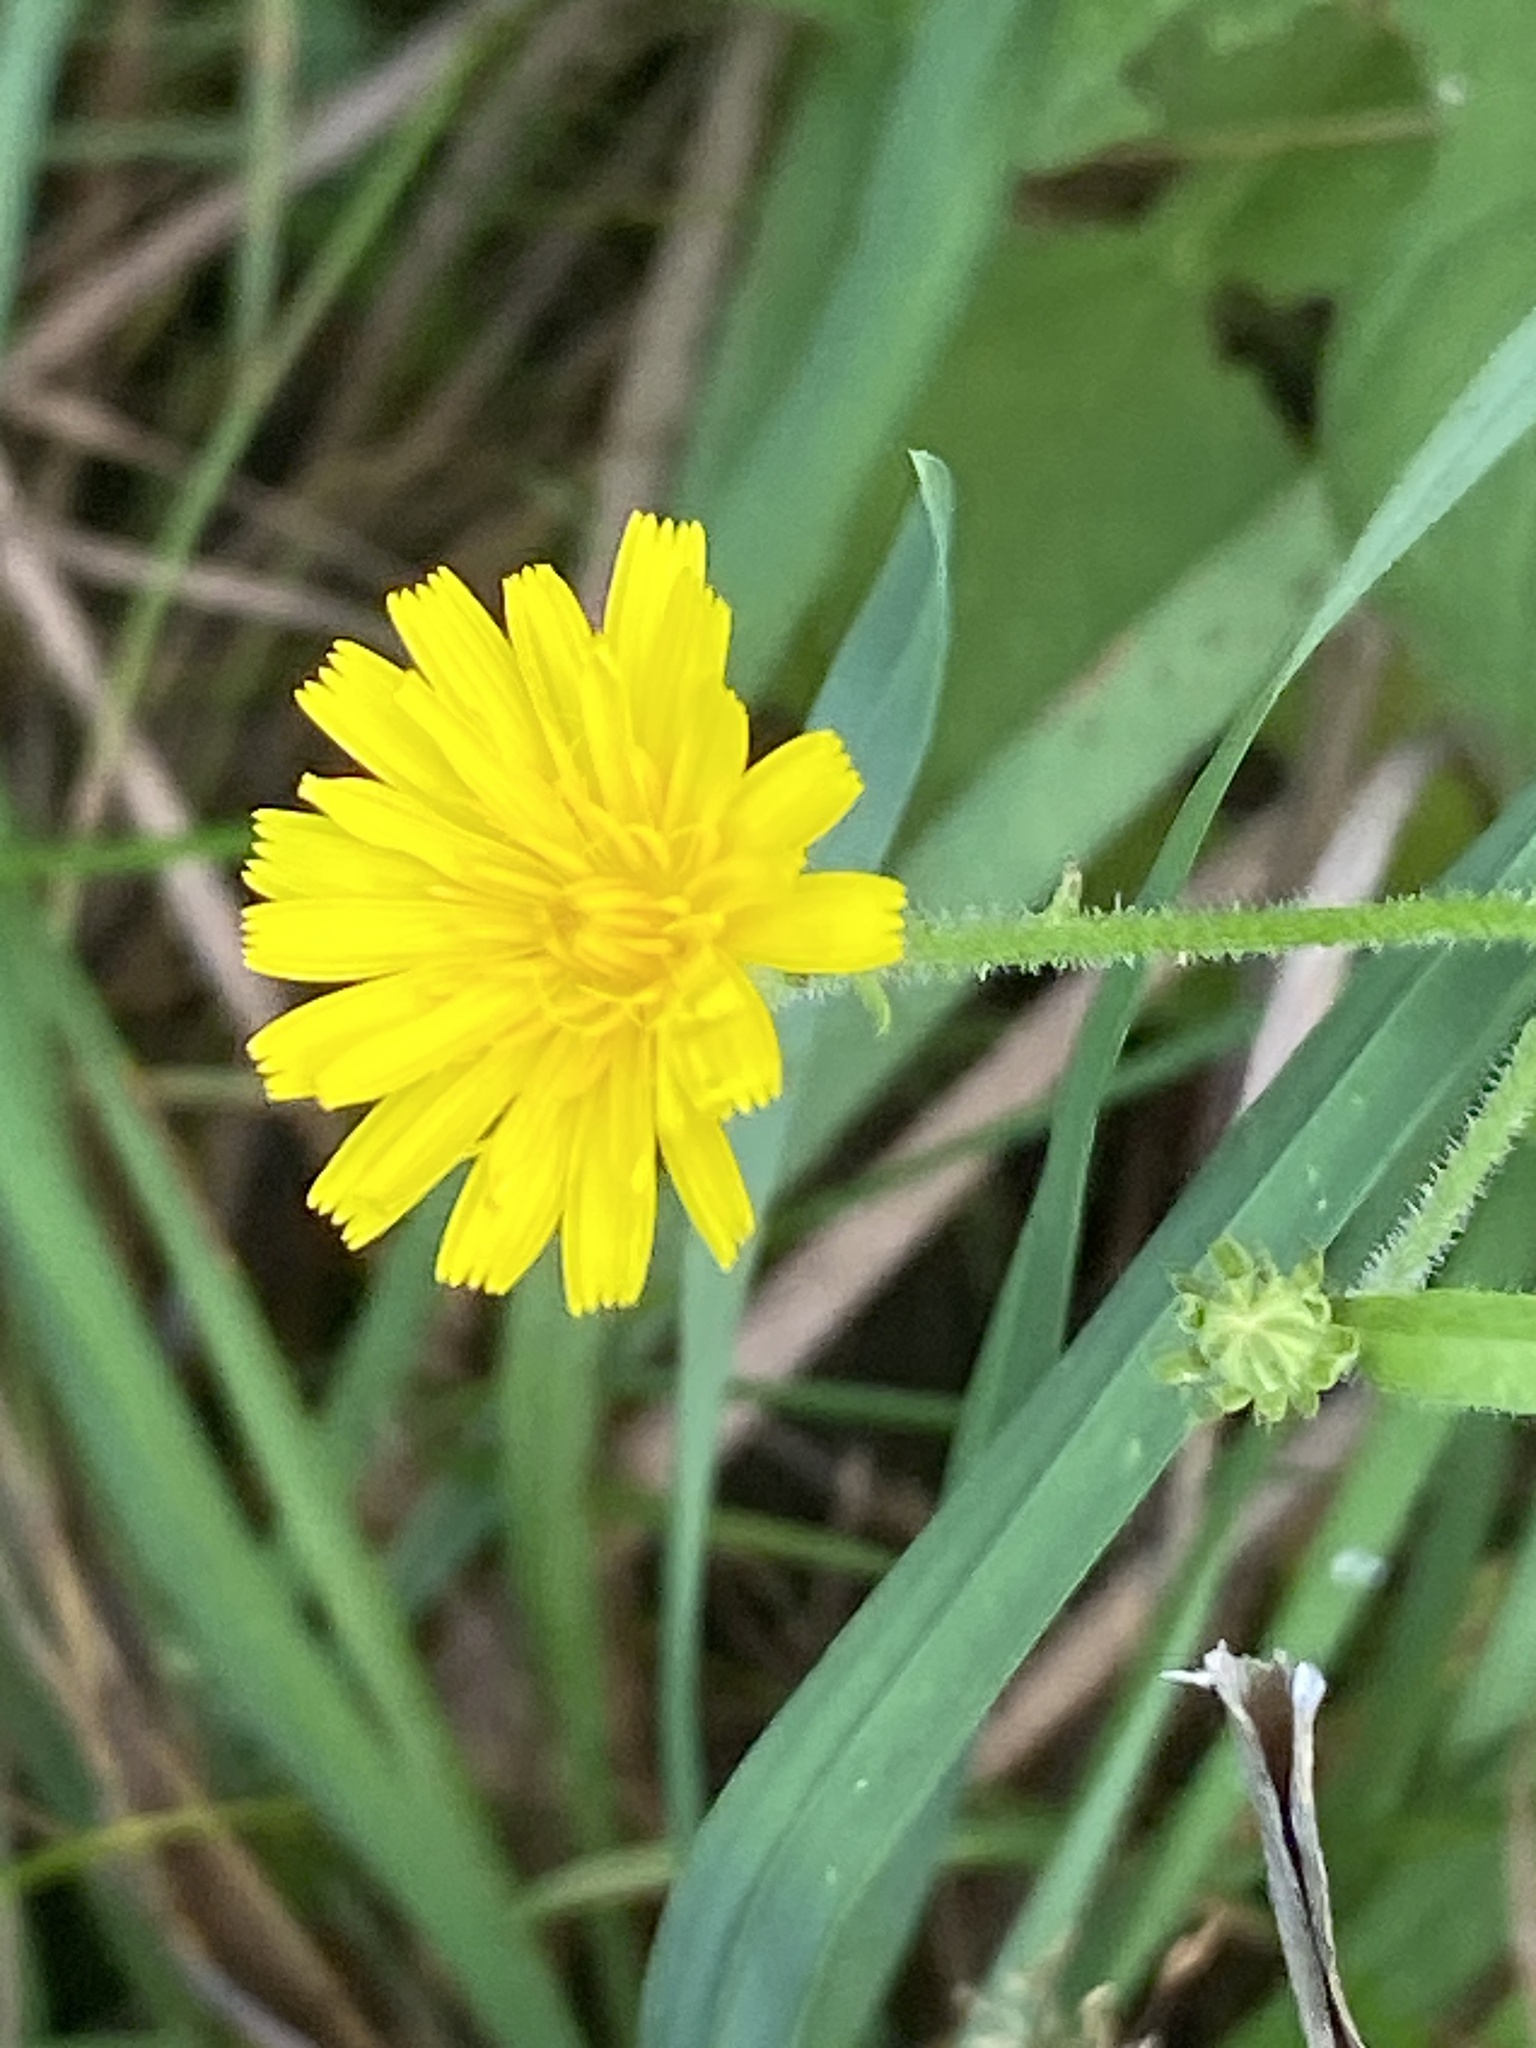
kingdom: Plantae
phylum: Tracheophyta
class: Magnoliopsida
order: Asterales
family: Asteraceae
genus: Picris
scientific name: Picris hieracioides
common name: Hawkweed oxtongue
